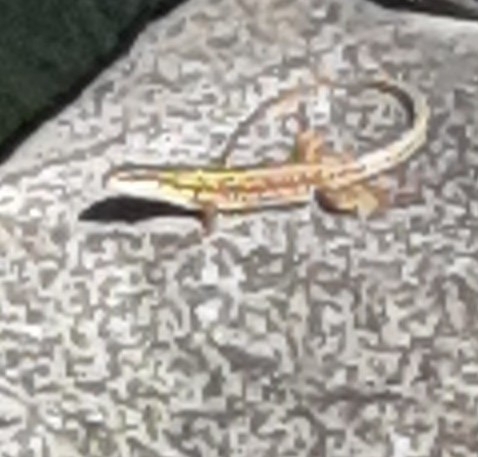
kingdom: Animalia
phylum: Chordata
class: Squamata
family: Lacertidae
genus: Podarcis
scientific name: Podarcis siculus
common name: Italian wall lizard
